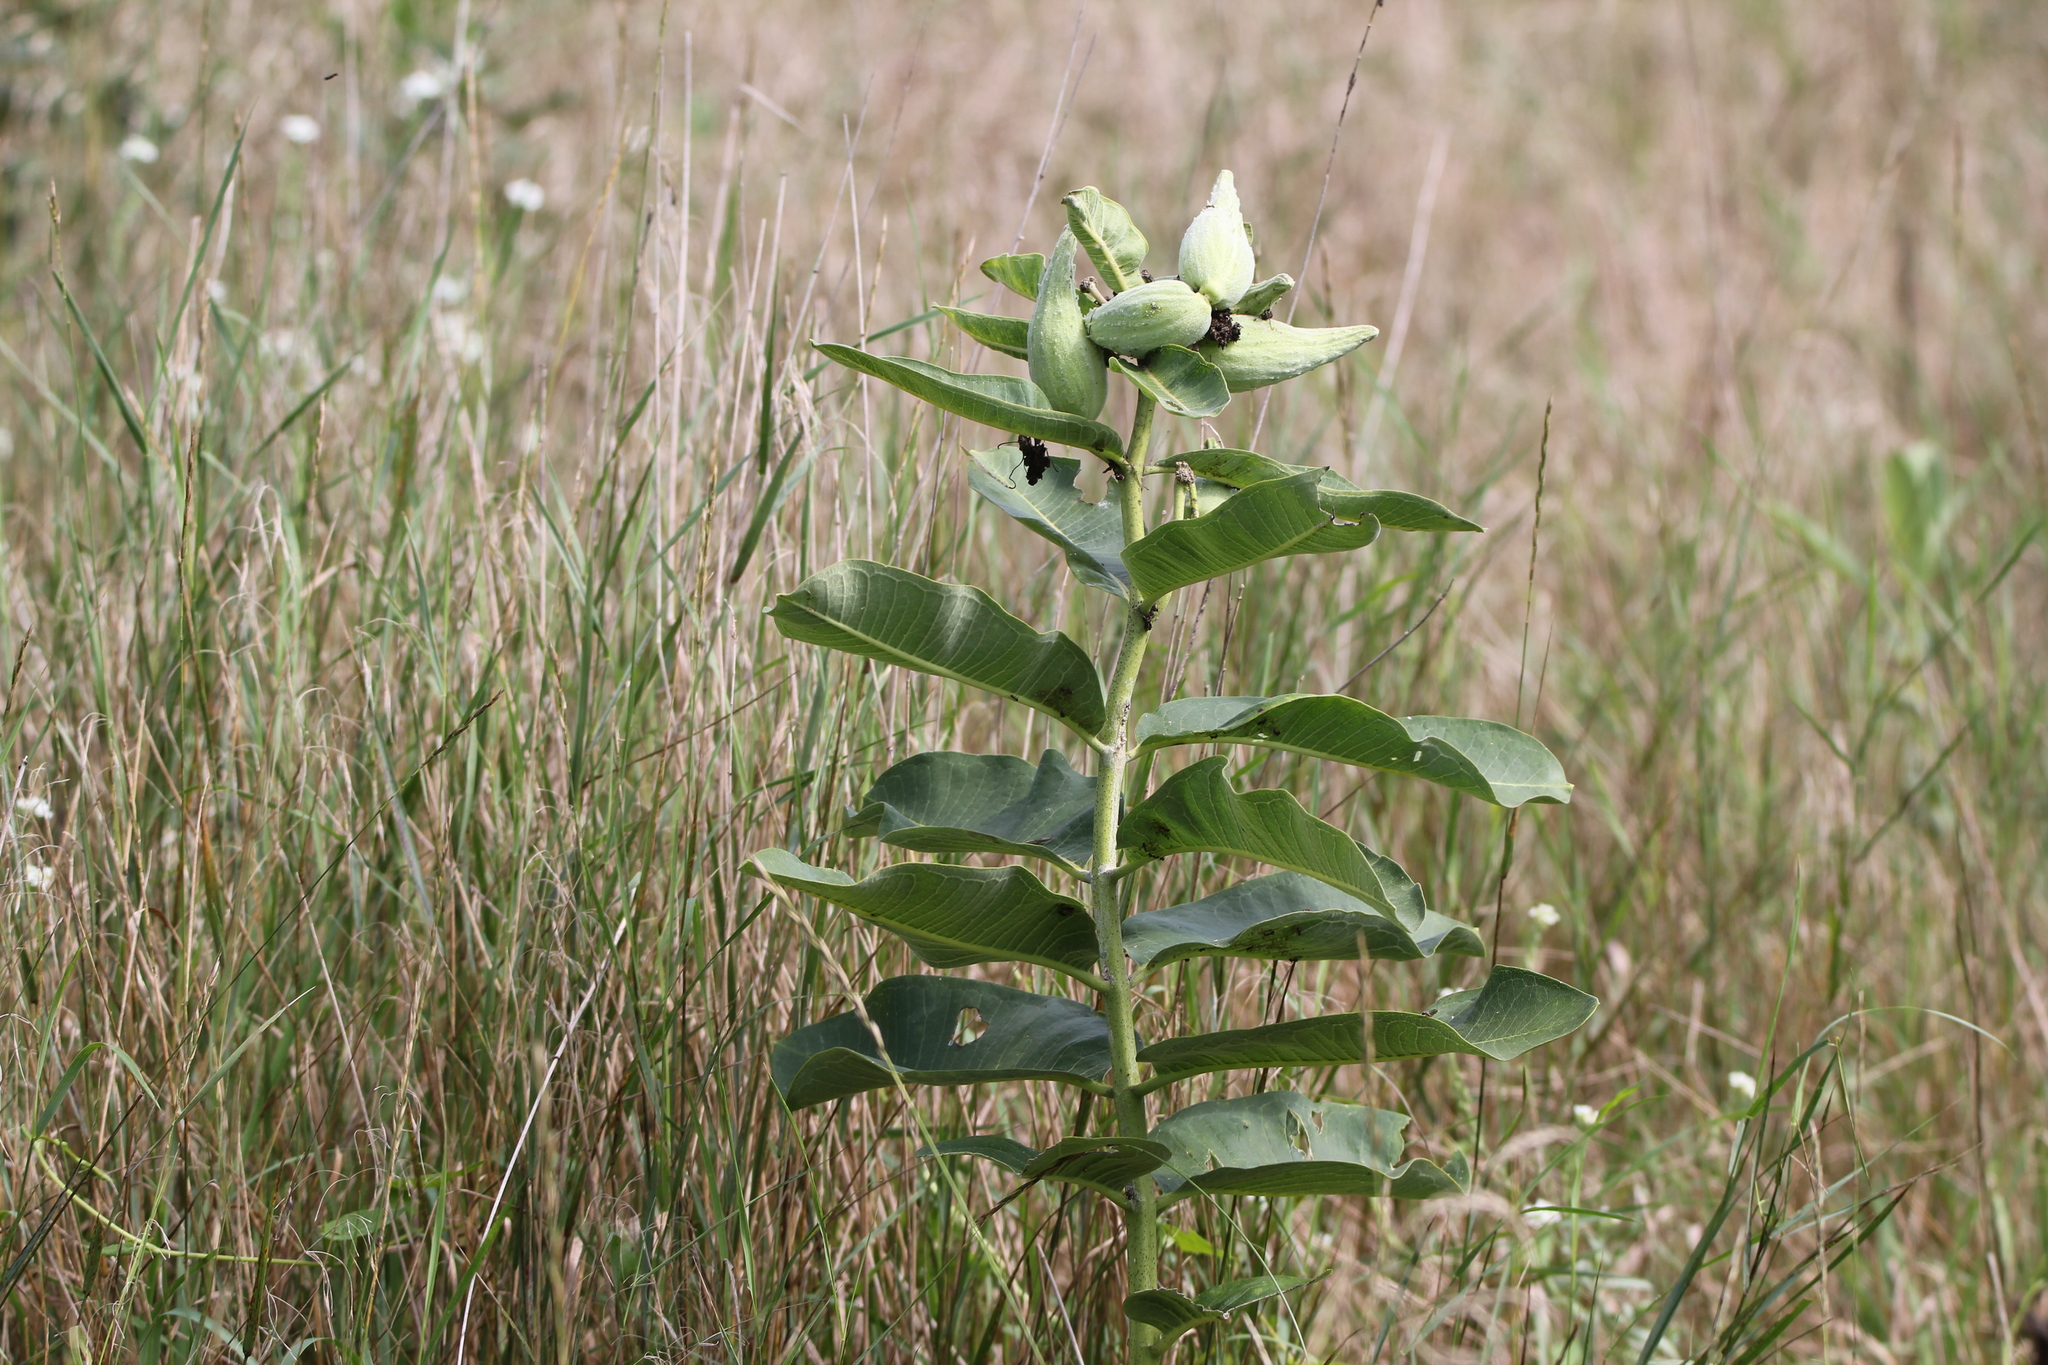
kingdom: Plantae
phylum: Tracheophyta
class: Magnoliopsida
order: Gentianales
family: Apocynaceae
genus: Asclepias
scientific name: Asclepias syriaca
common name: Common milkweed
